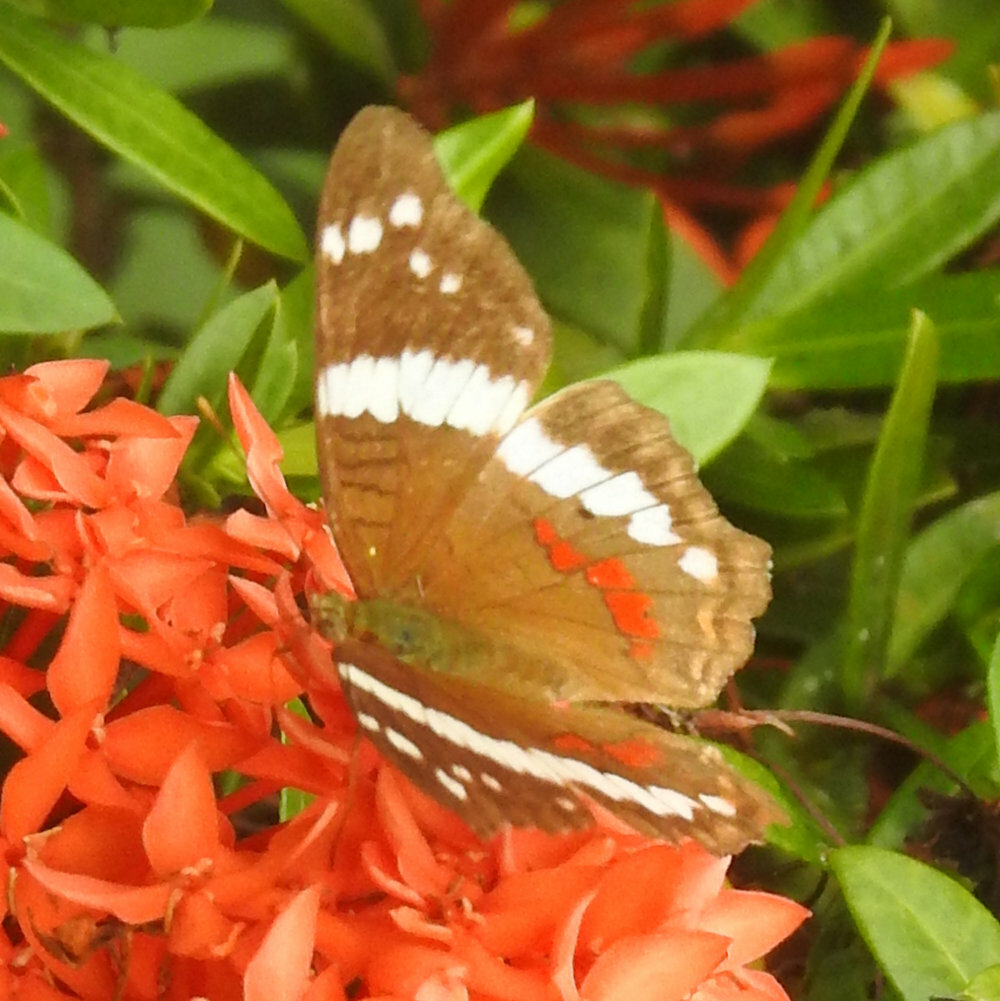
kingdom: Animalia
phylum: Arthropoda
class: Insecta
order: Lepidoptera
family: Nymphalidae
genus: Anartia
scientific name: Anartia fatima
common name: Banded peacock
